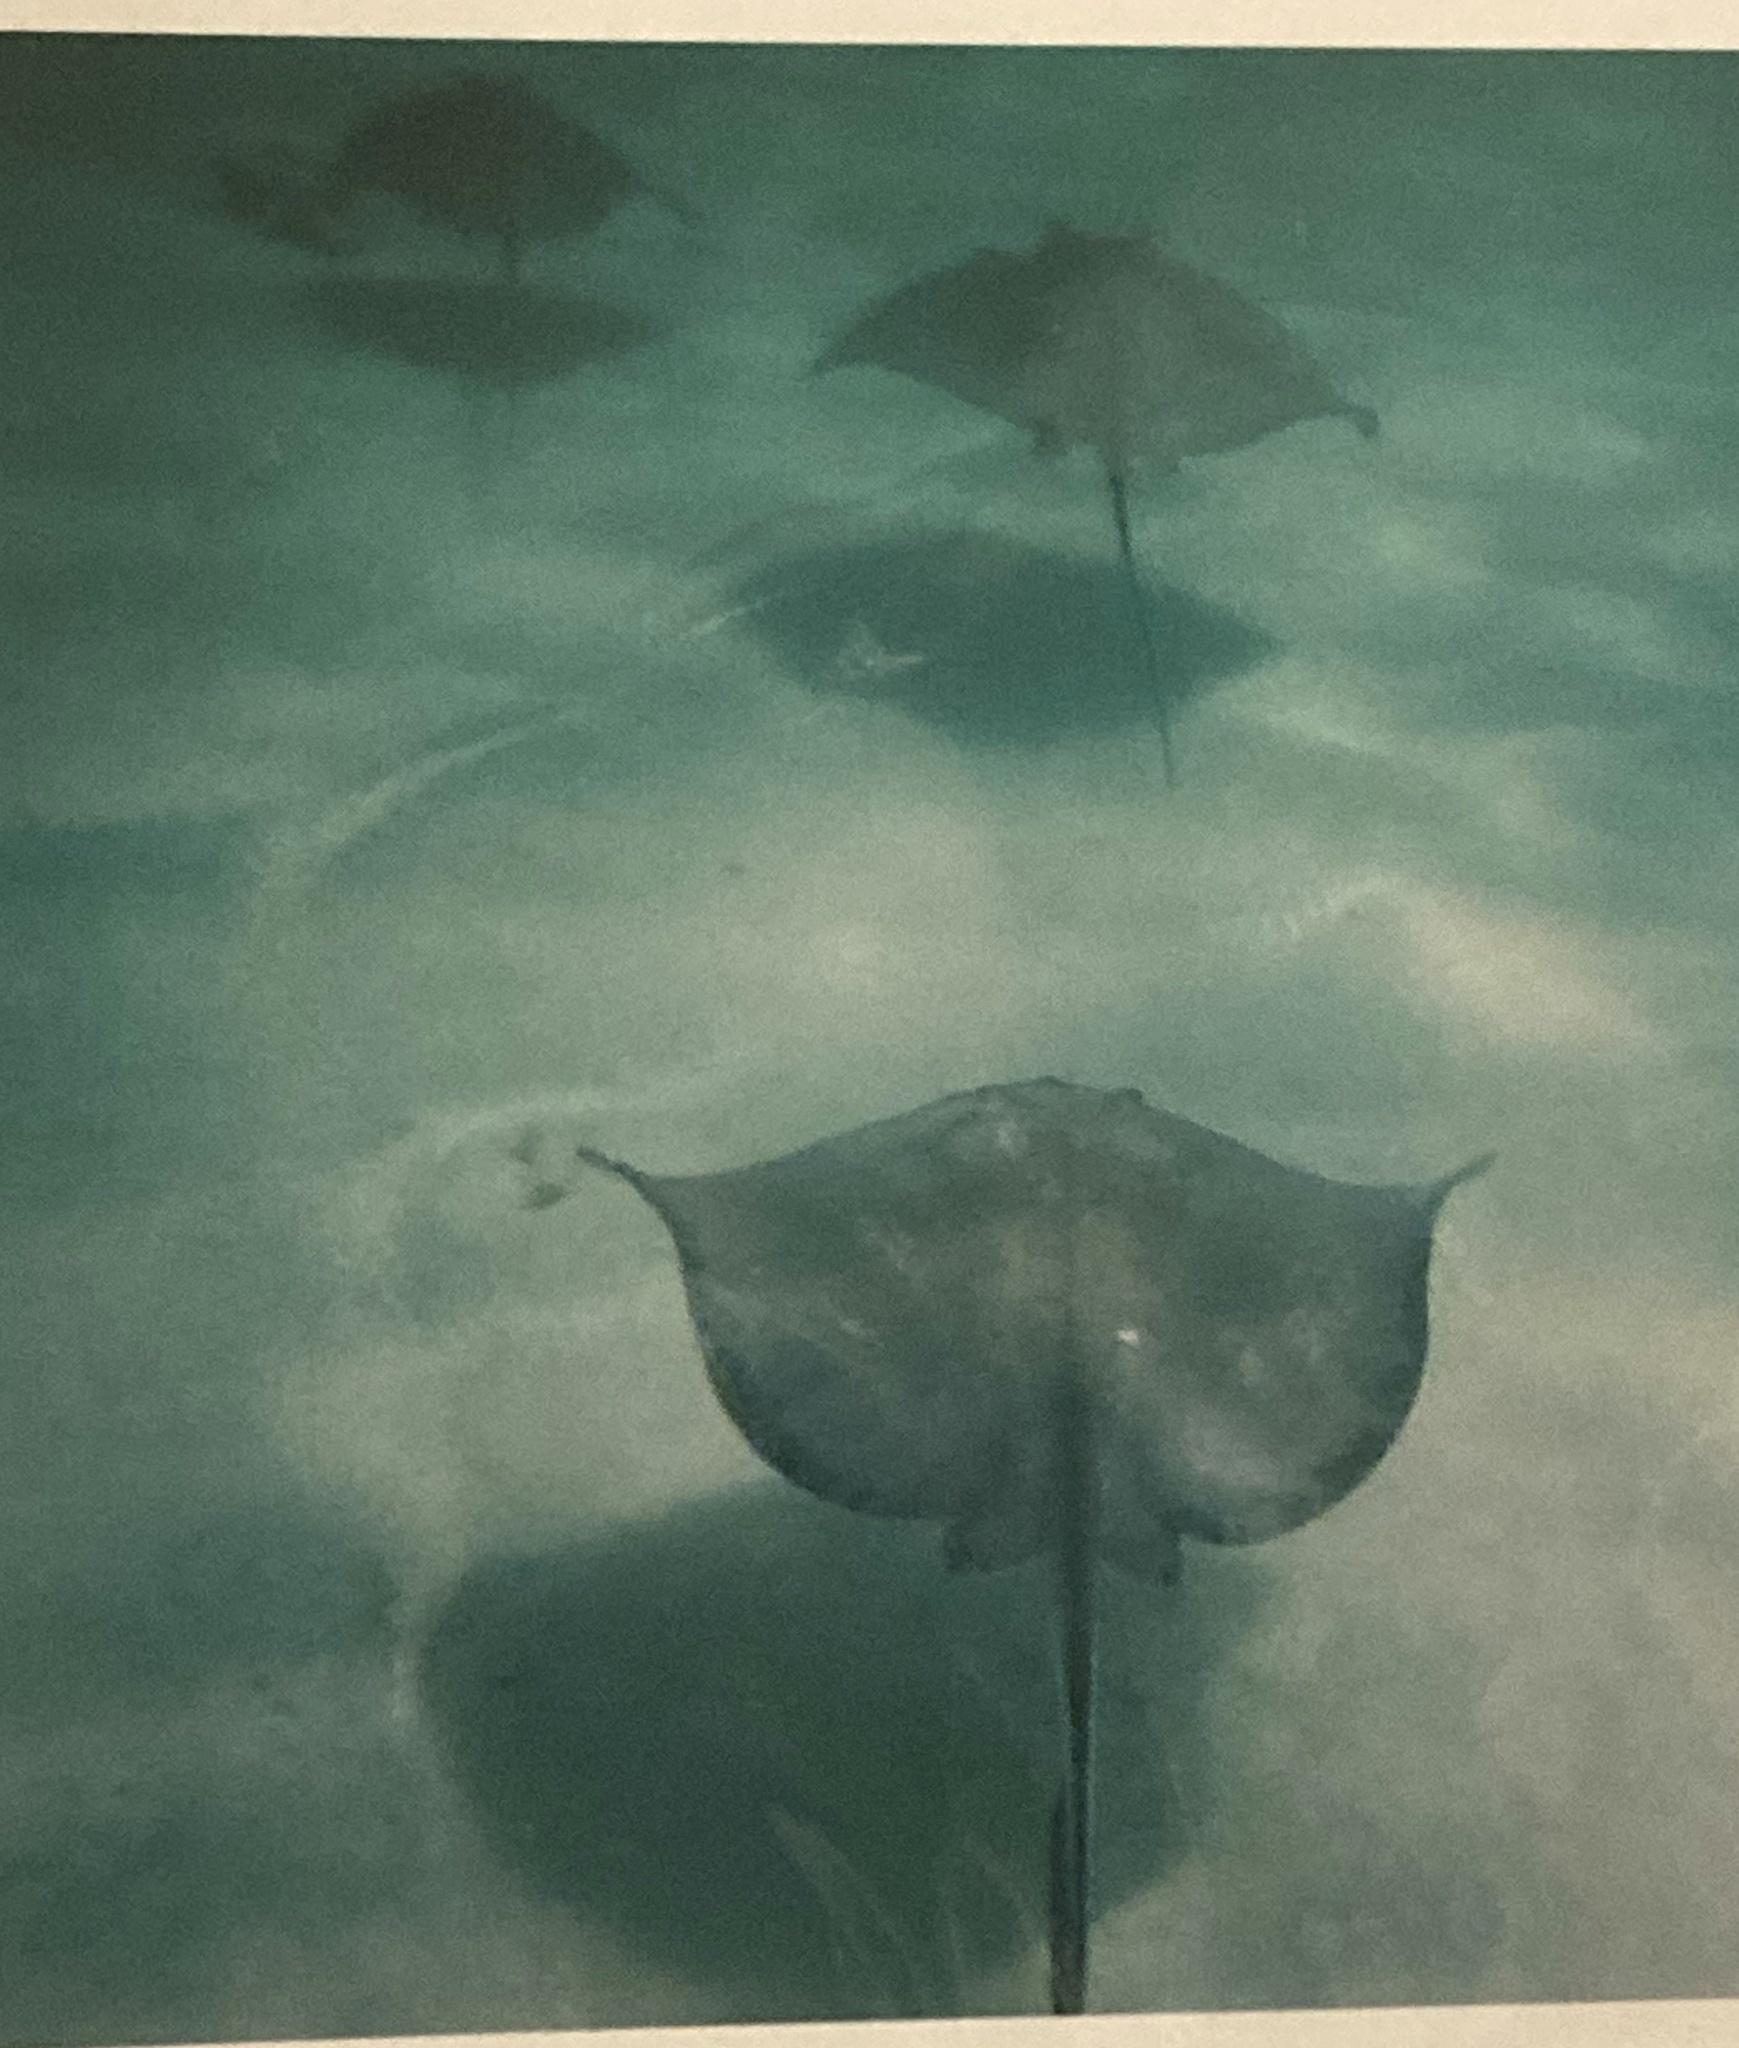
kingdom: Animalia
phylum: Chordata
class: Elasmobranchii
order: Myliobatiformes
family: Dasyatidae
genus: Hypanus
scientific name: Hypanus americanus
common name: Southern stingray
